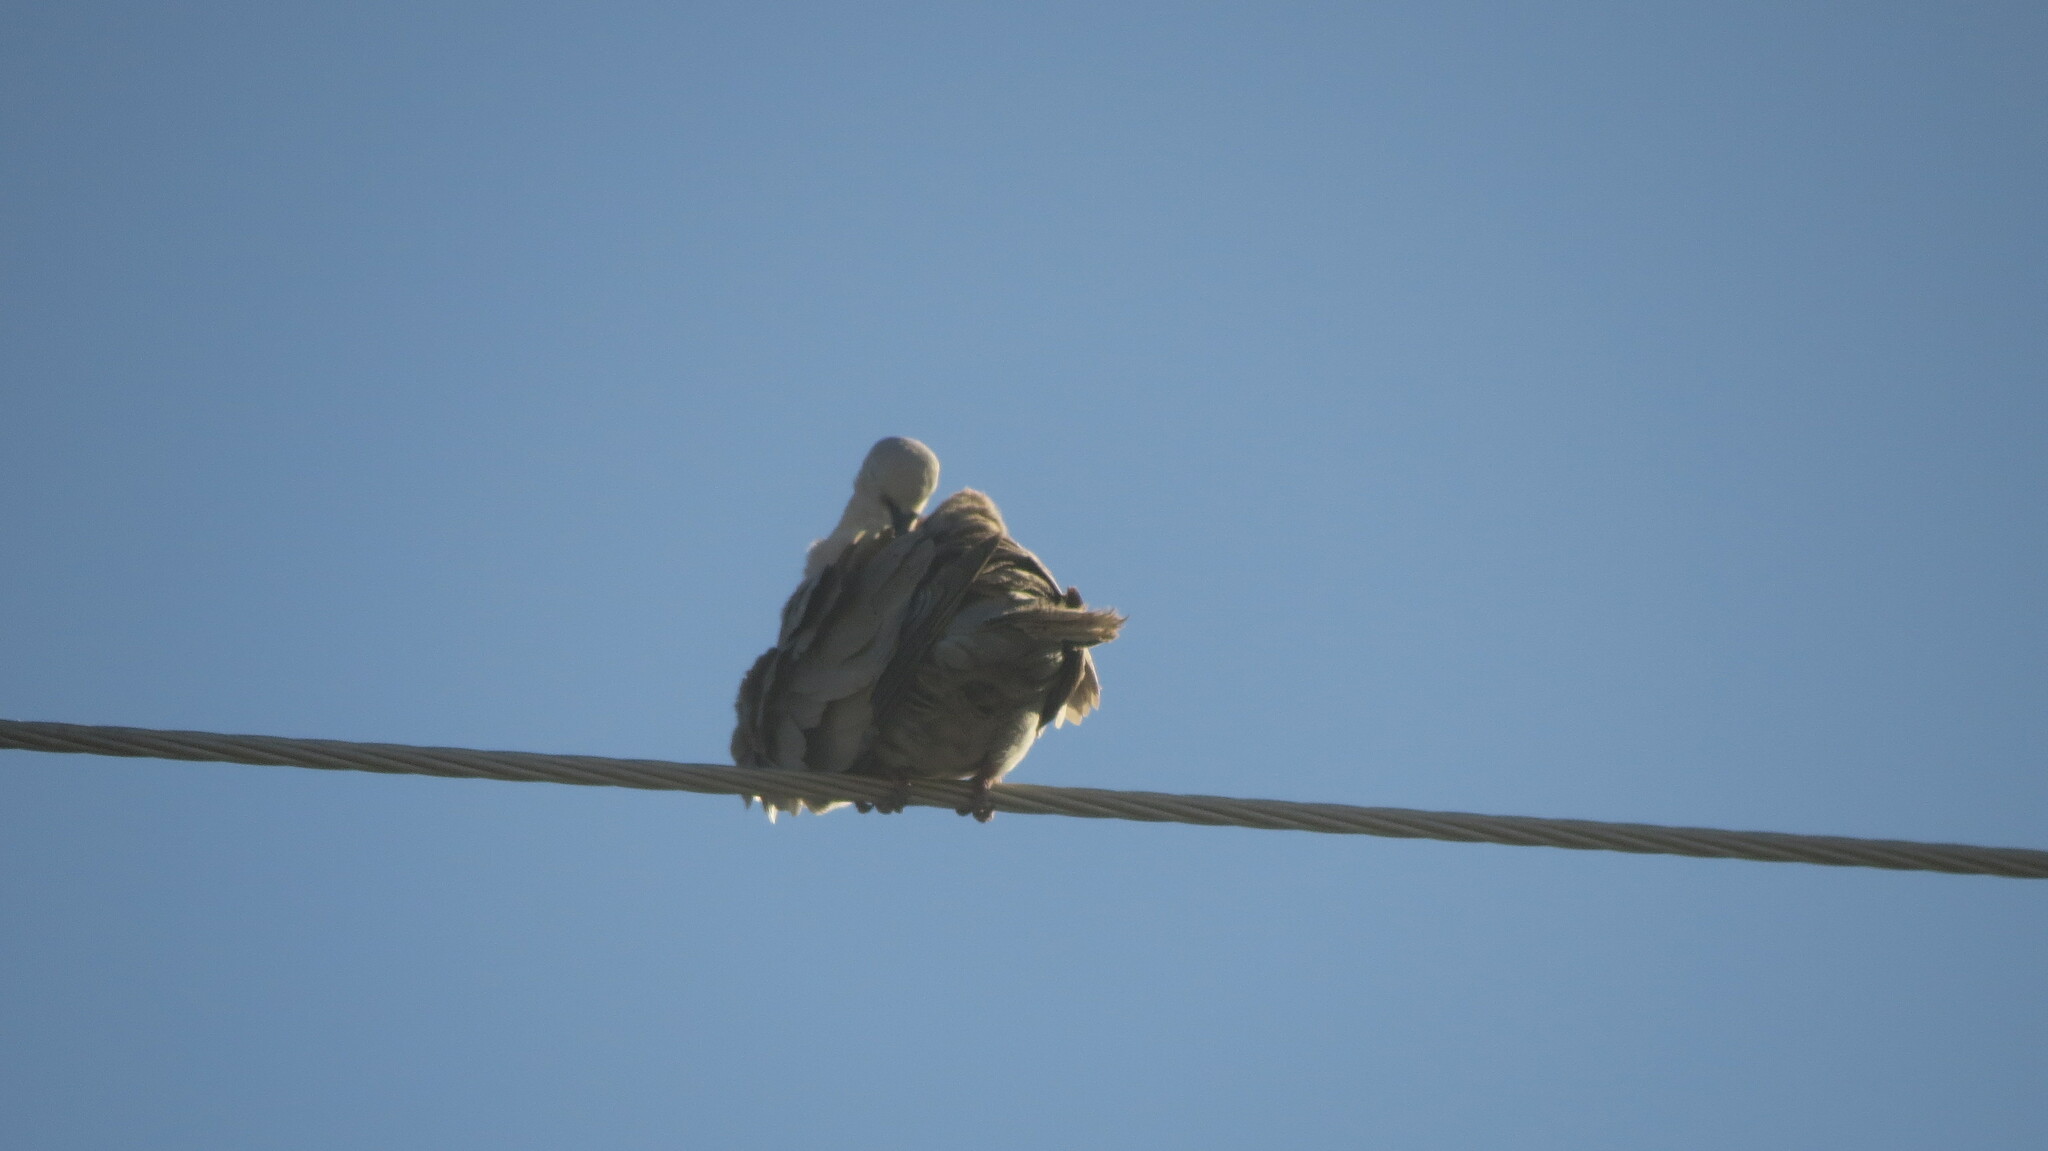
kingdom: Animalia
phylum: Chordata
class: Aves
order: Columbiformes
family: Columbidae
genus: Streptopelia
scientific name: Streptopelia decaocto
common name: Eurasian collared dove
